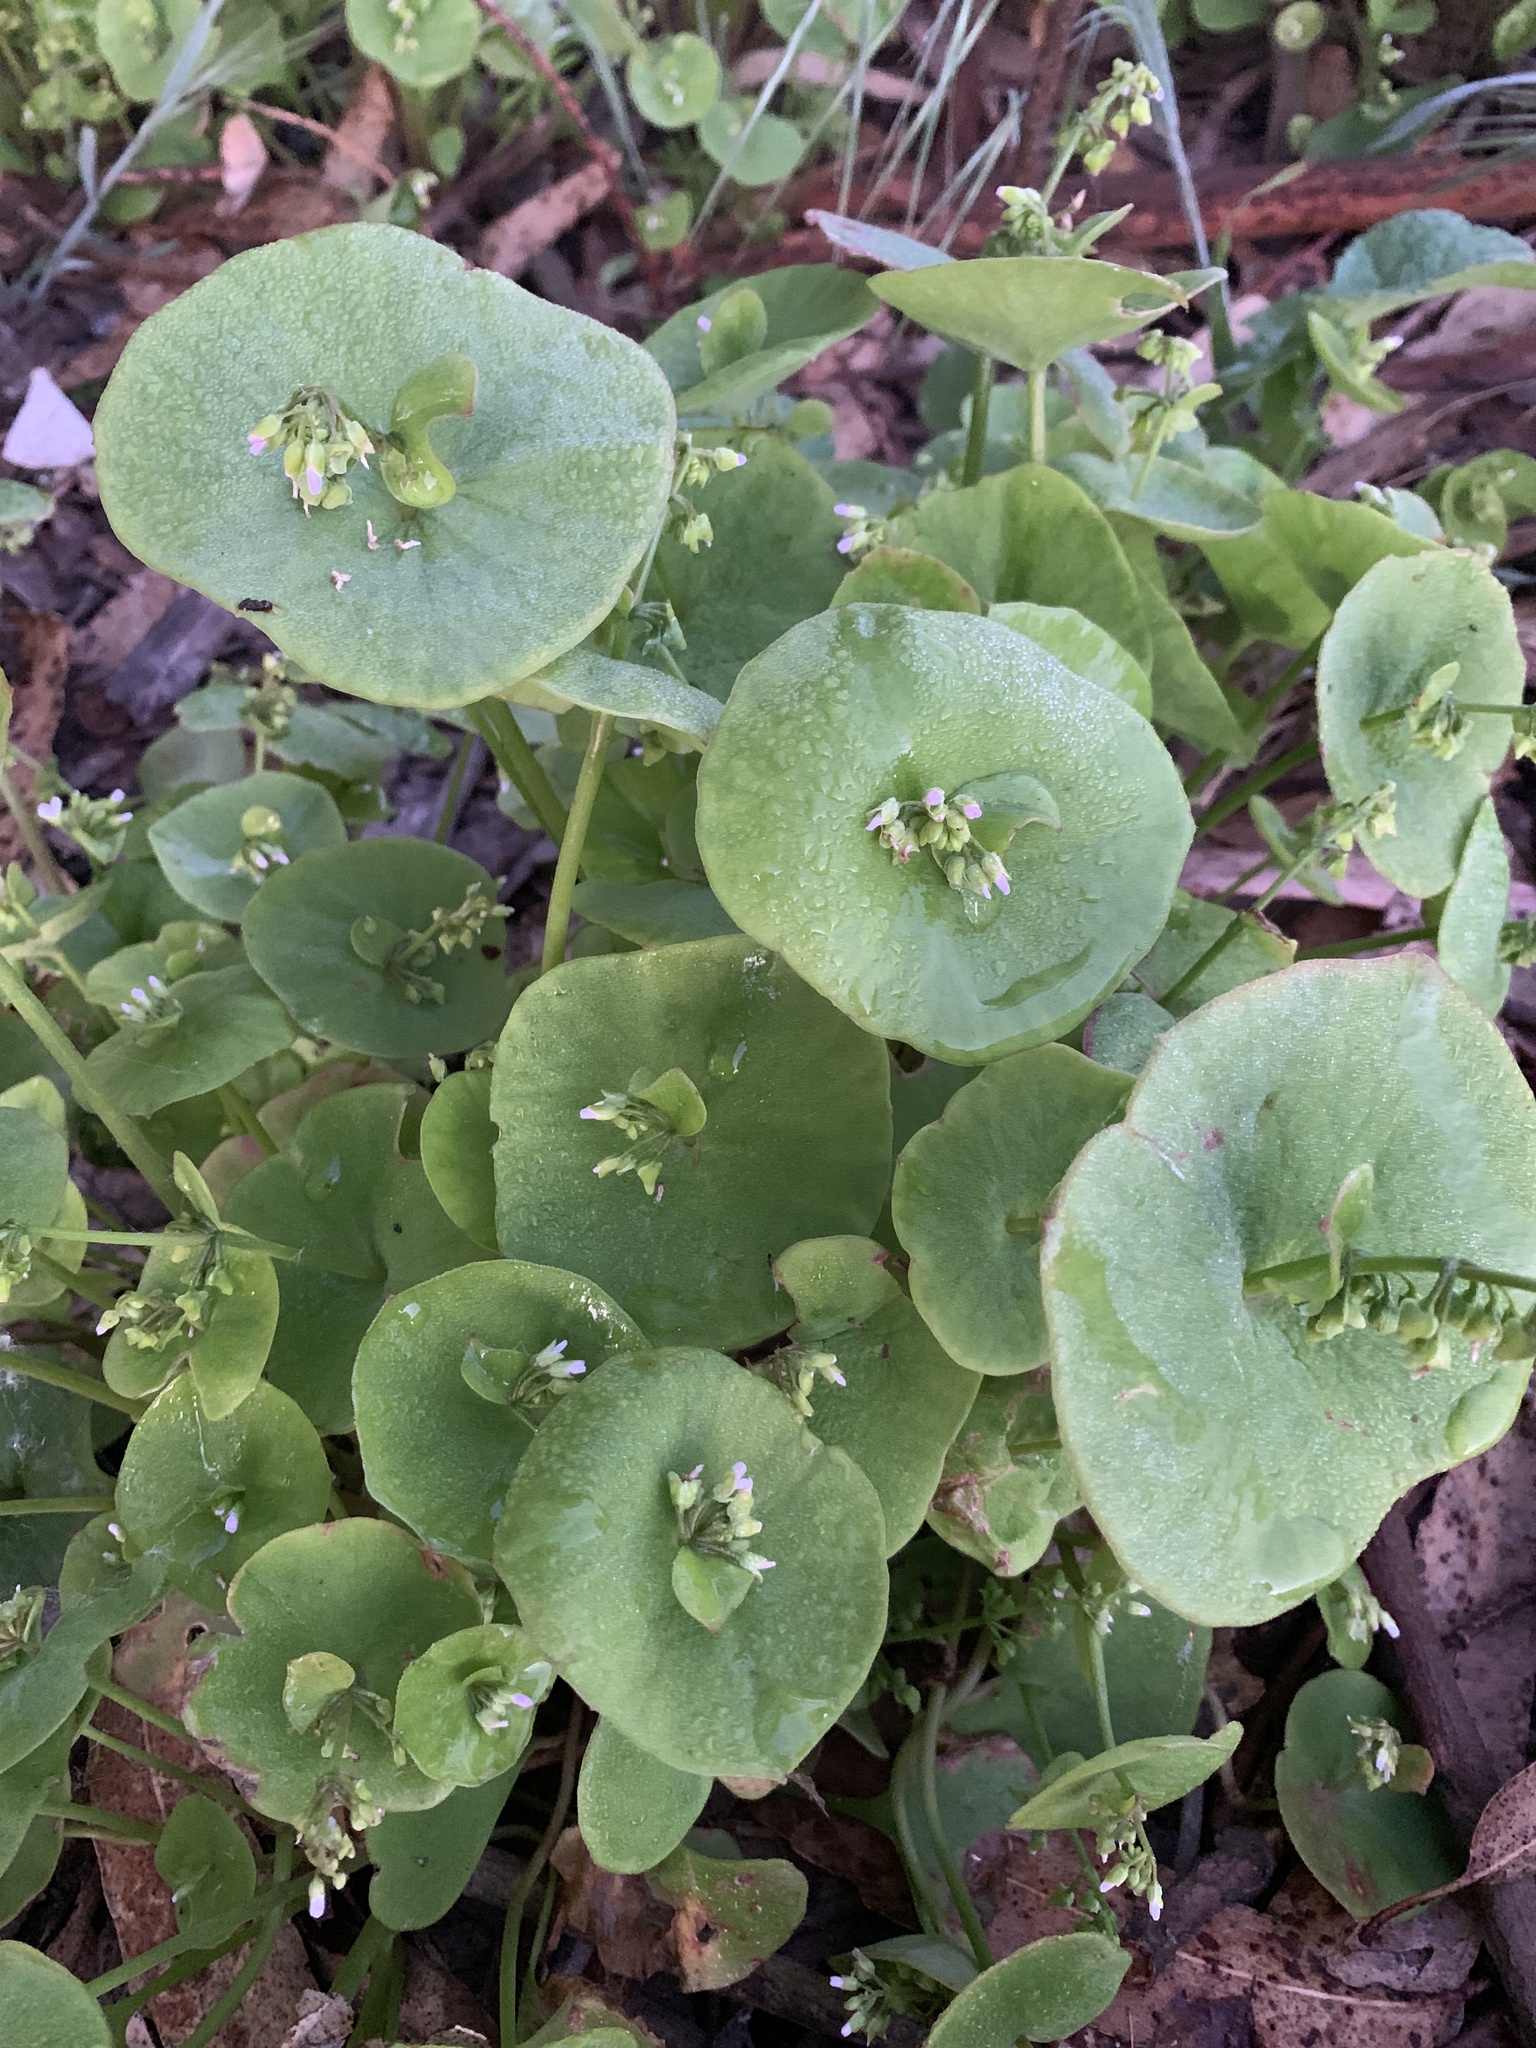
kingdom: Plantae
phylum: Tracheophyta
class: Magnoliopsida
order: Caryophyllales
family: Montiaceae
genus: Claytonia
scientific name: Claytonia perfoliata
